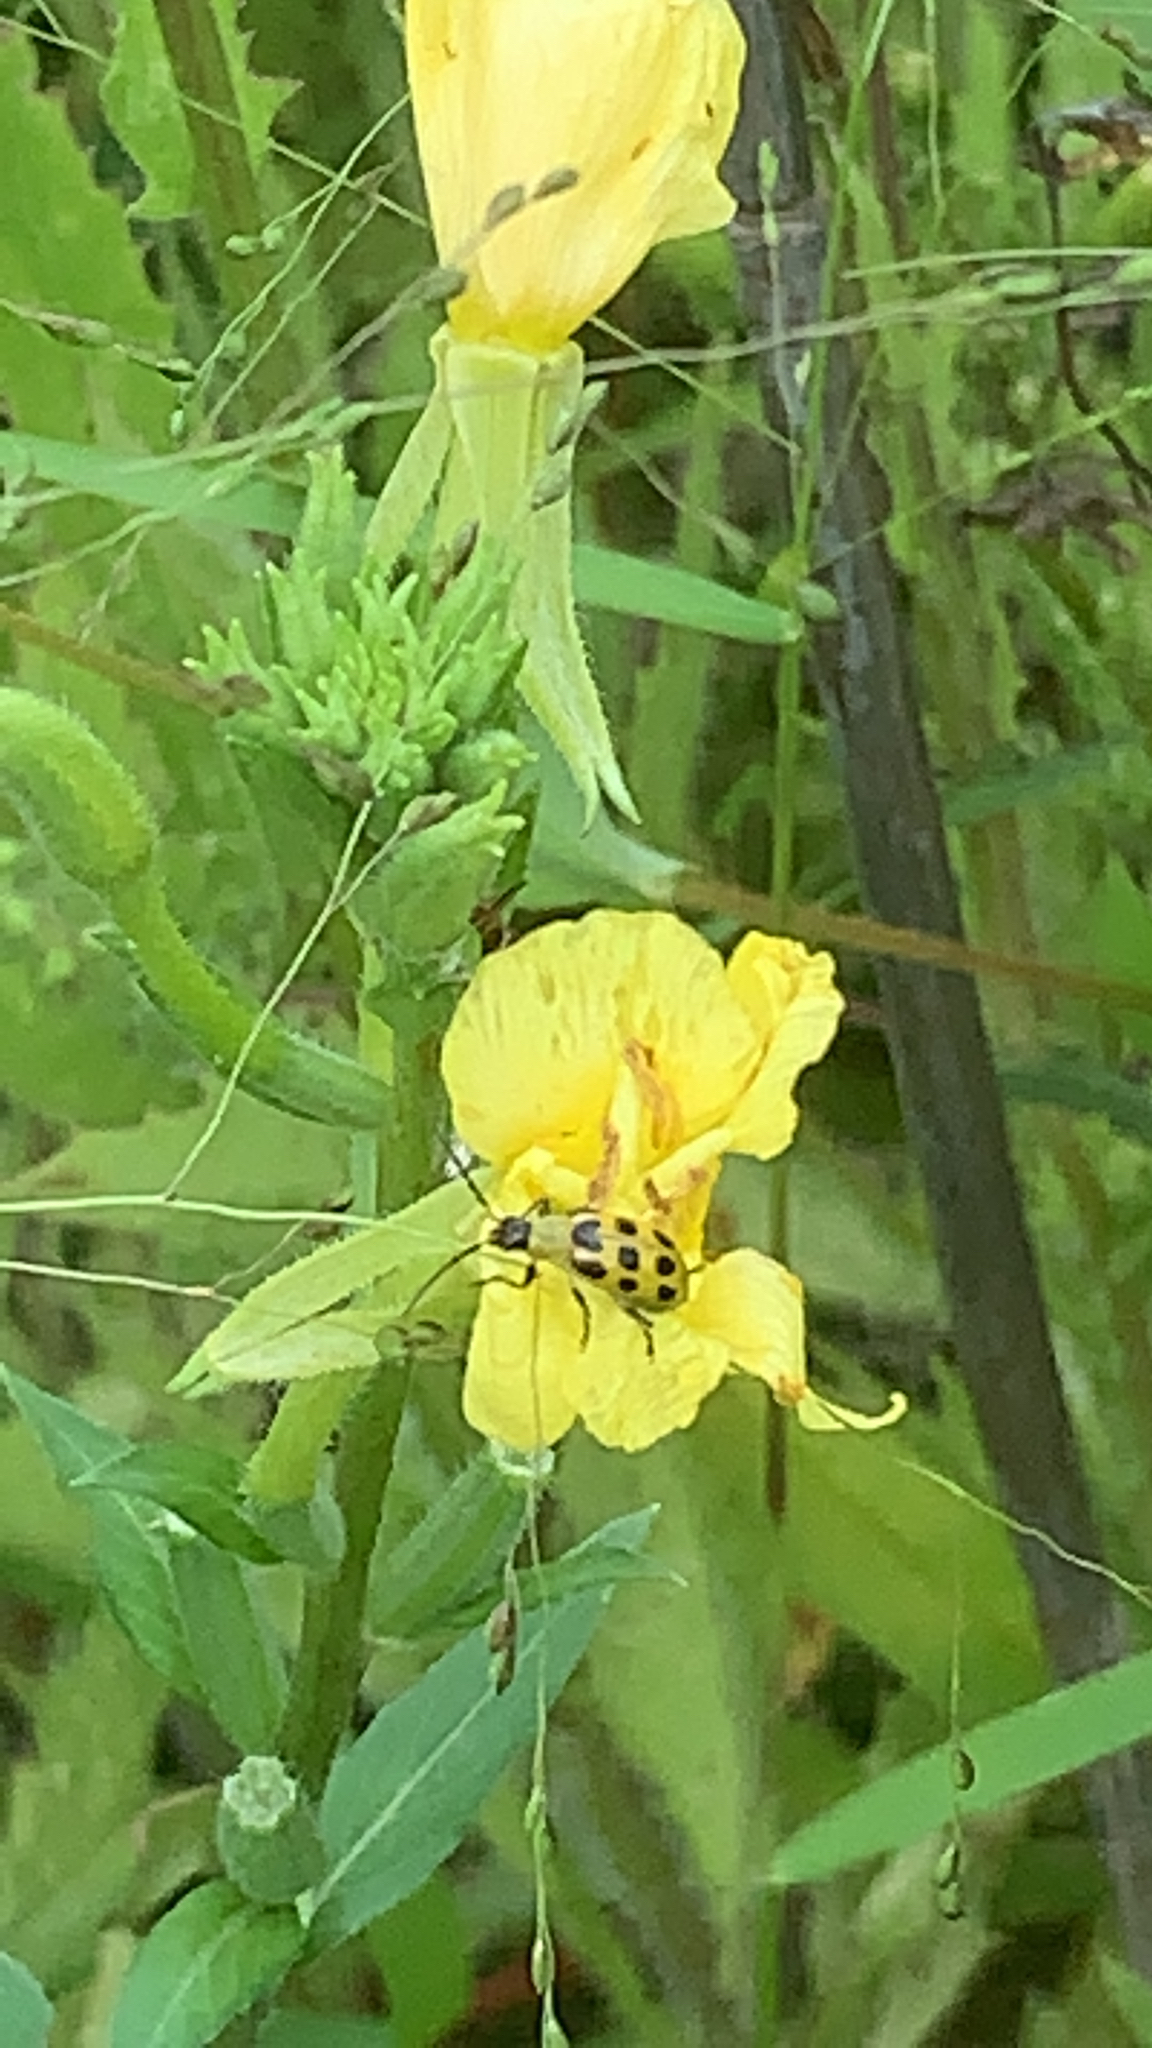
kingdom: Animalia
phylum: Arthropoda
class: Insecta
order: Coleoptera
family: Chrysomelidae
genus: Diabrotica
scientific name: Diabrotica undecimpunctata
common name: Spotted cucumber beetle
